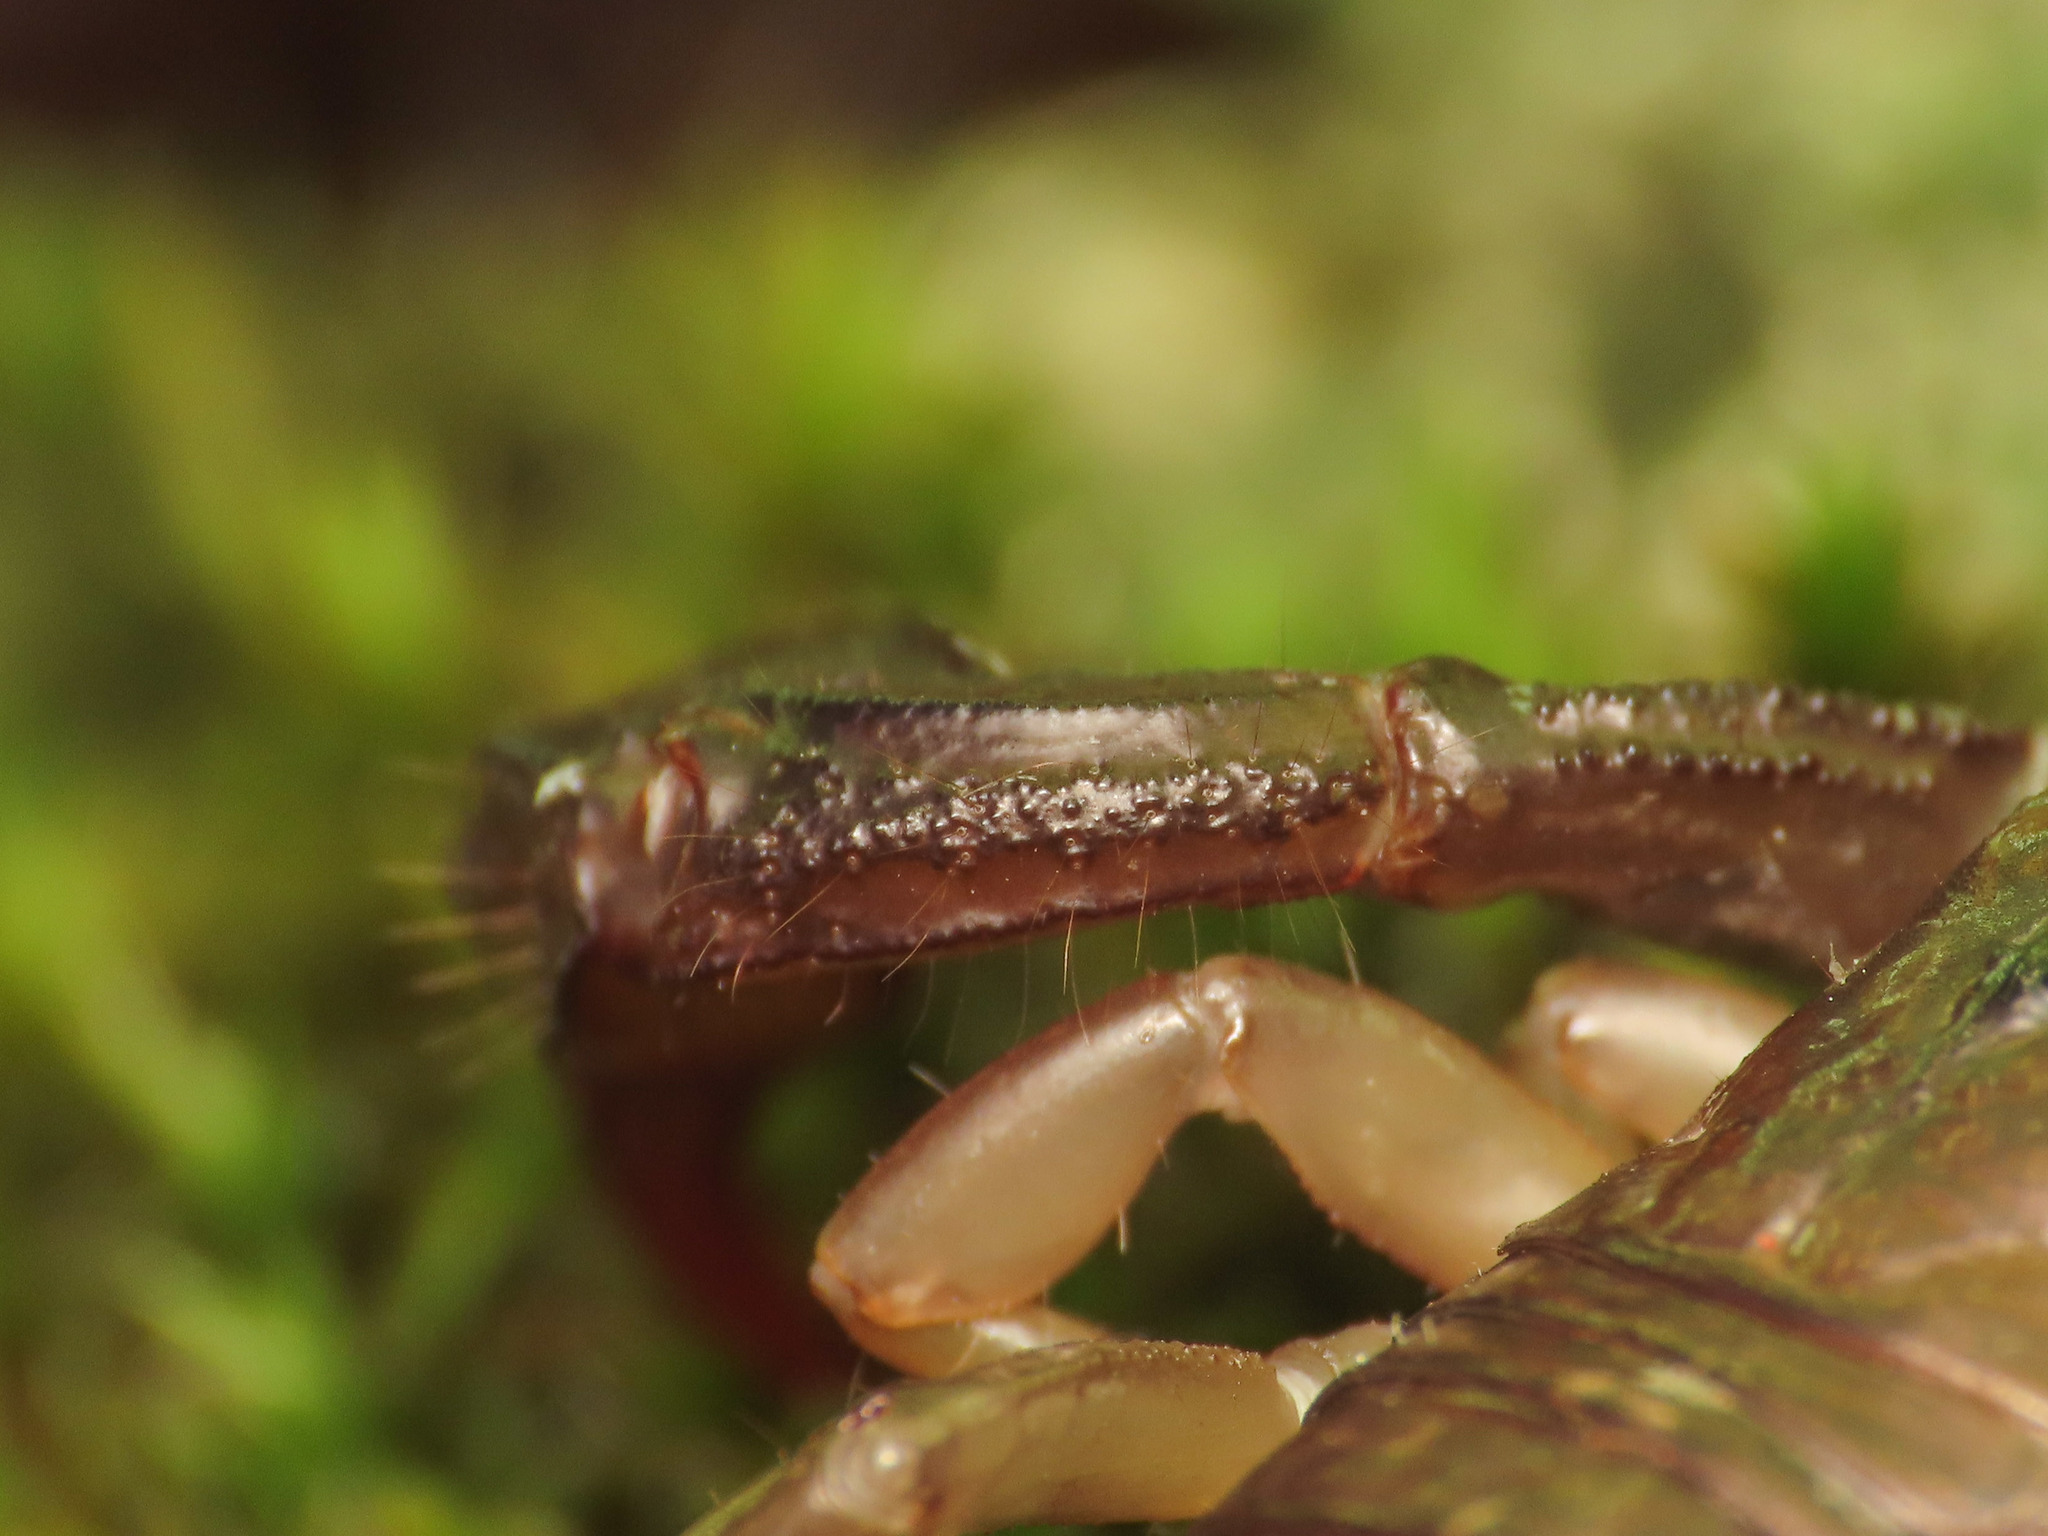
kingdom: Animalia
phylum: Arthropoda
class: Arachnida
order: Scorpiones
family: Euscorpiidae
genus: Euscorpius
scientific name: Euscorpius italicus
